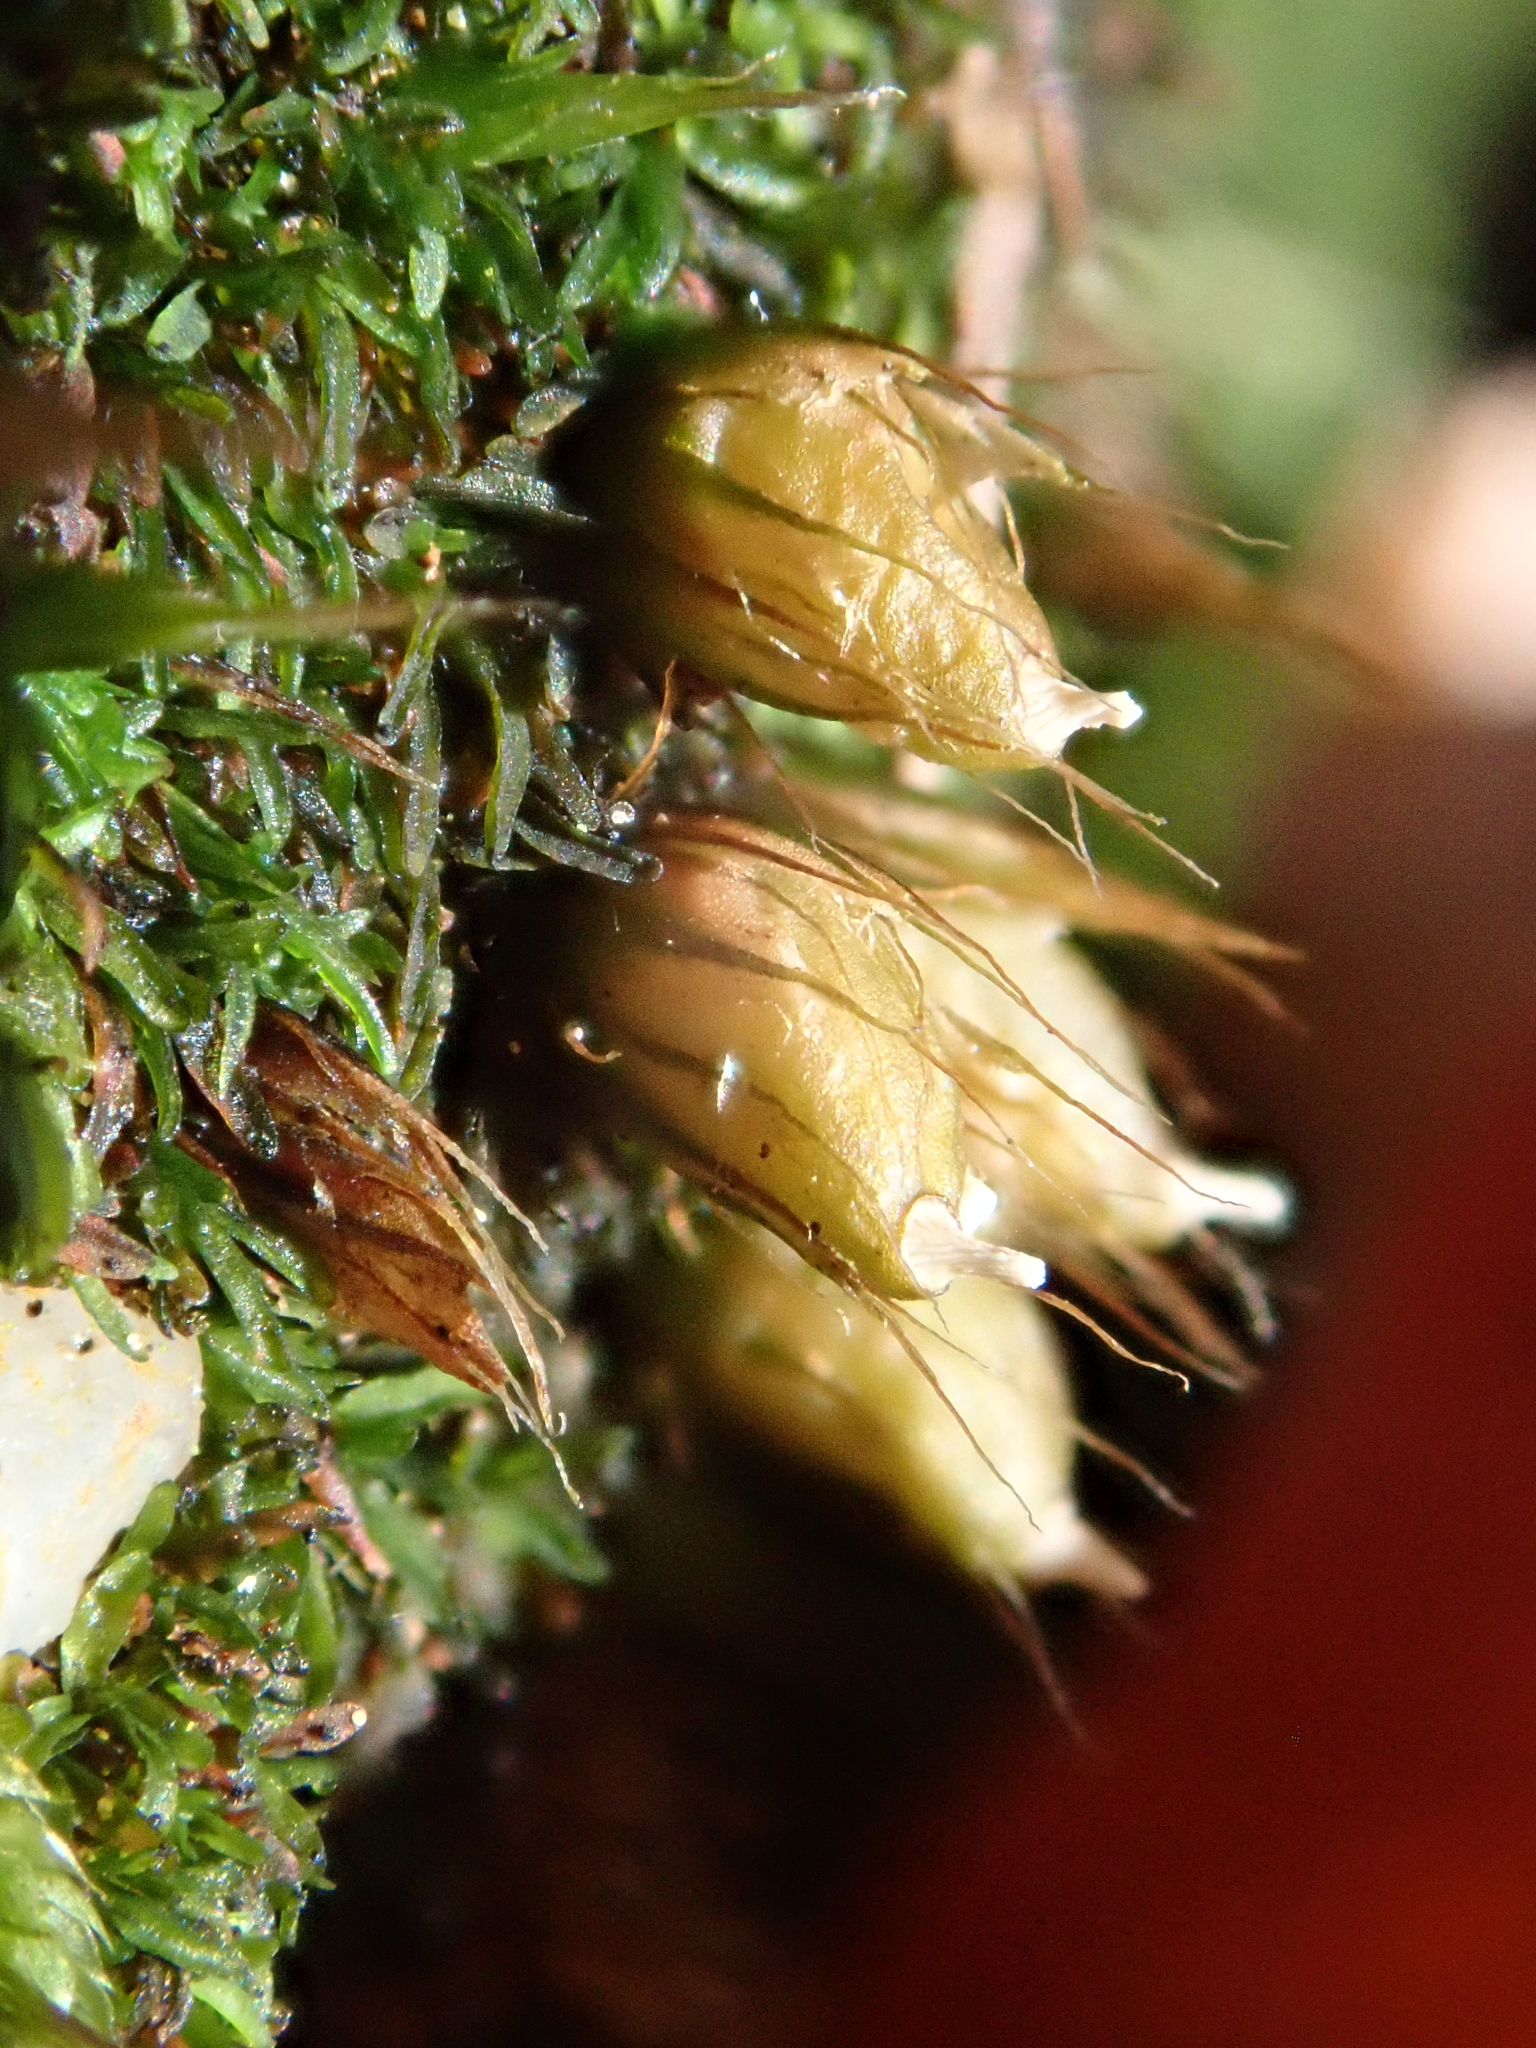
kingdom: Plantae
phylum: Bryophyta
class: Bryopsida
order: Diphysciales
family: Diphysciaceae
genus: Diphyscium
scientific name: Diphyscium foliosum
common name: Nut moss
